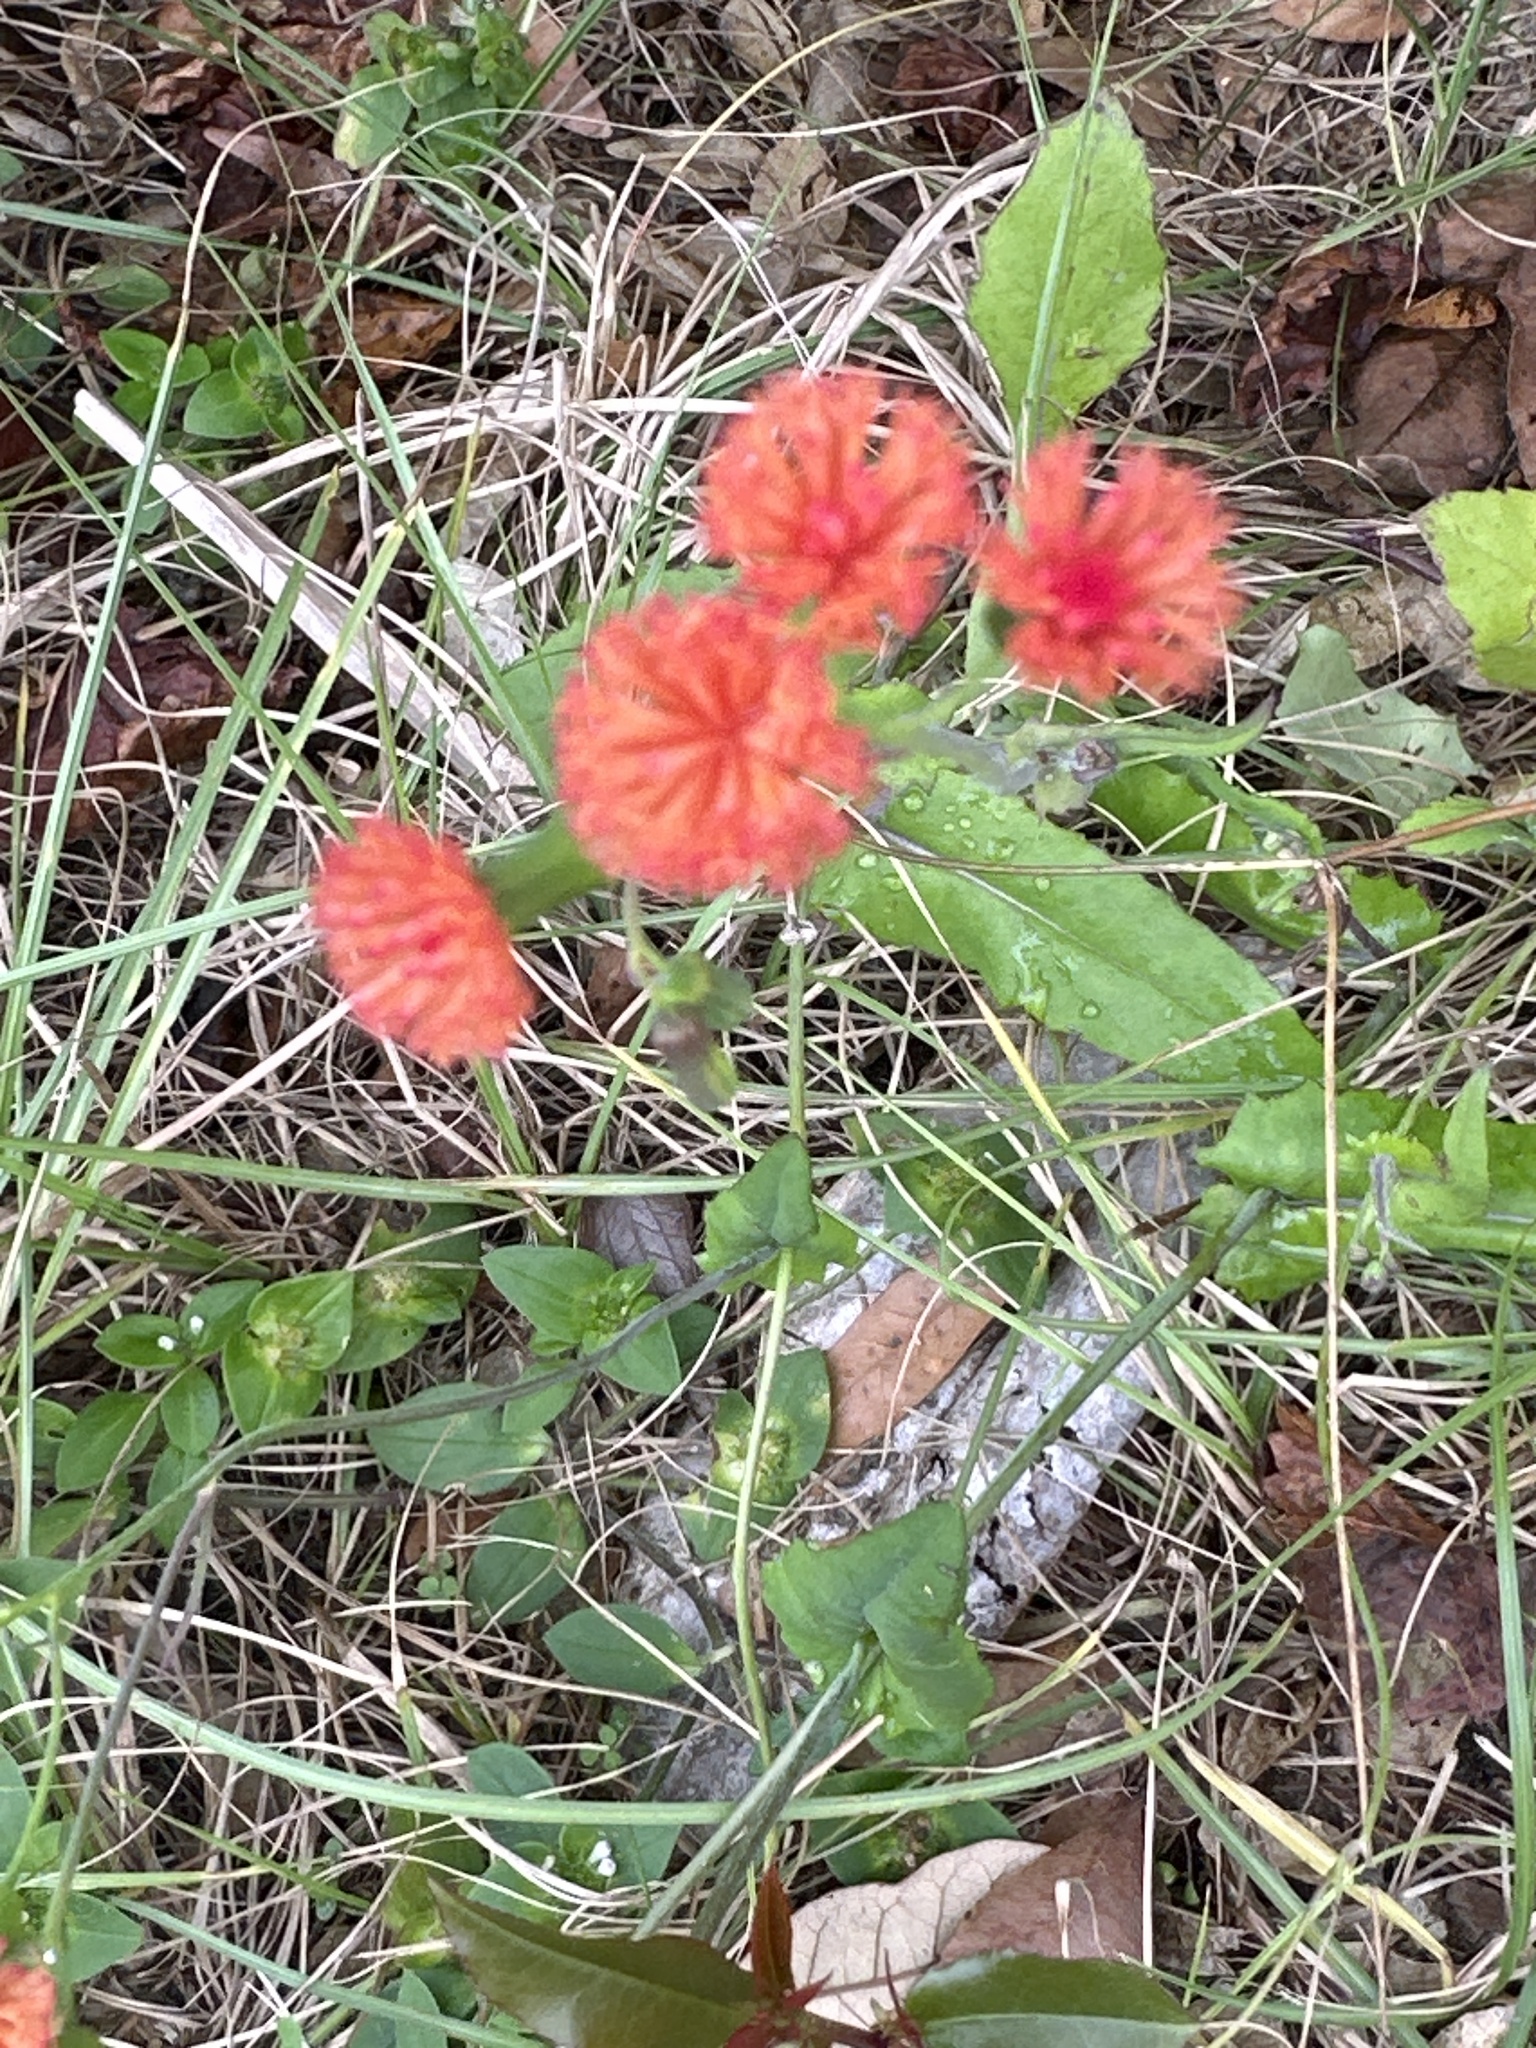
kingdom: Plantae
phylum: Tracheophyta
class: Magnoliopsida
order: Asterales
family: Asteraceae
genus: Emilia
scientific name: Emilia fosbergii
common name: Florida tasselflower
